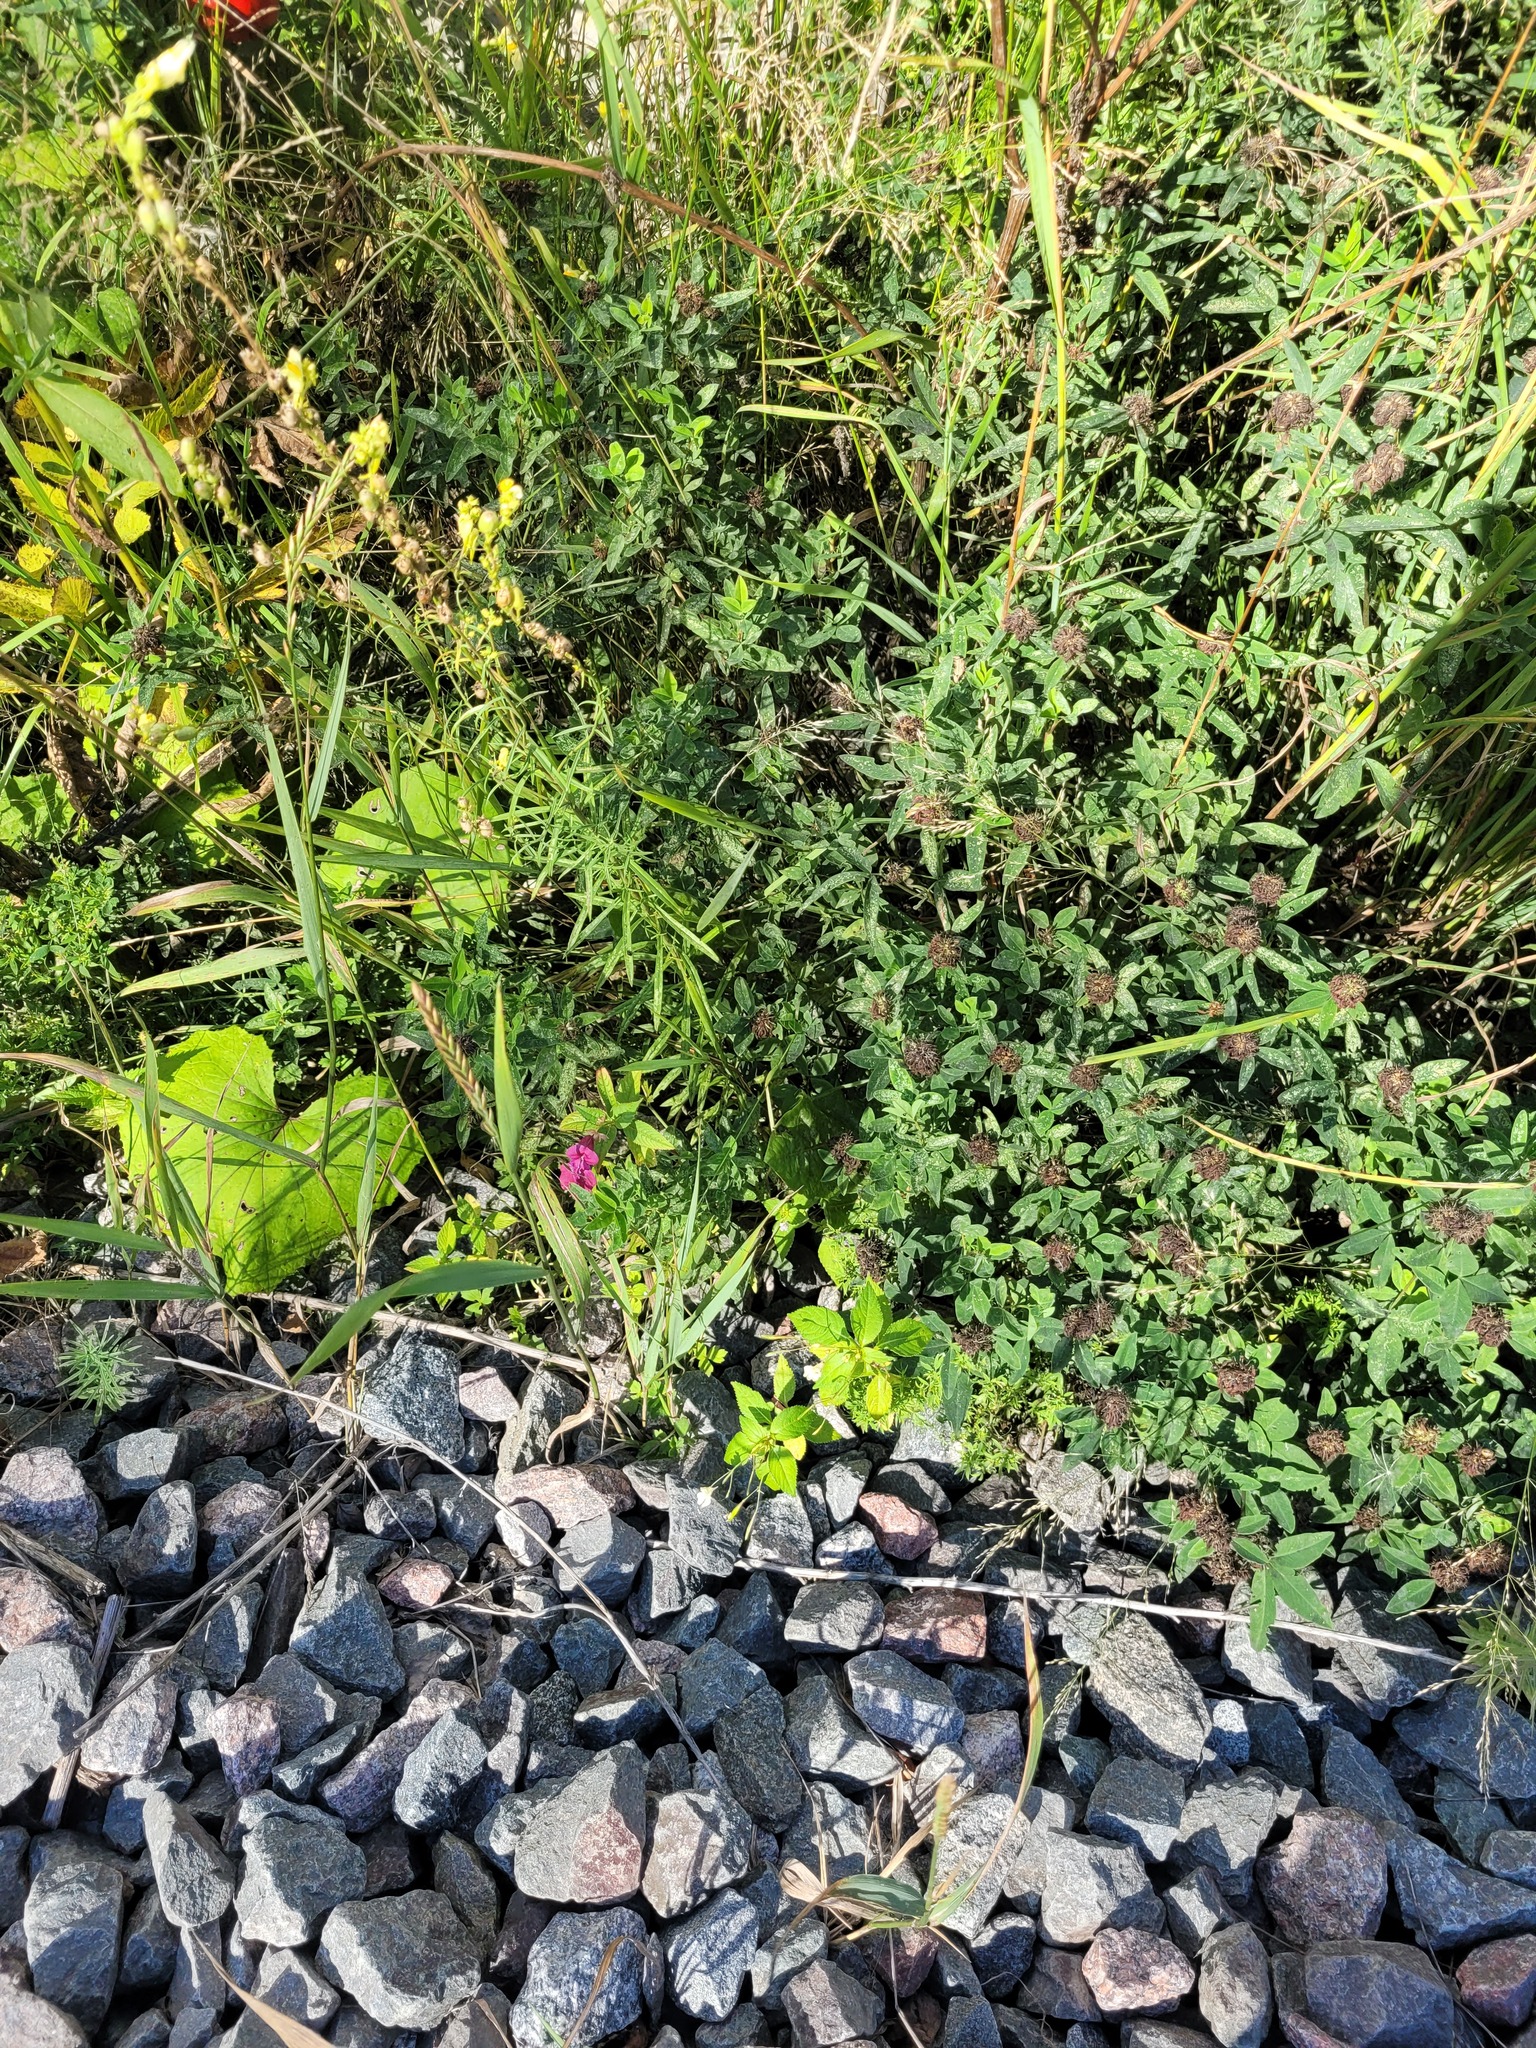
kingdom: Plantae
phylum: Tracheophyta
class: Magnoliopsida
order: Ericales
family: Balsaminaceae
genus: Impatiens
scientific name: Impatiens glandulifera
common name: Himalayan balsam
